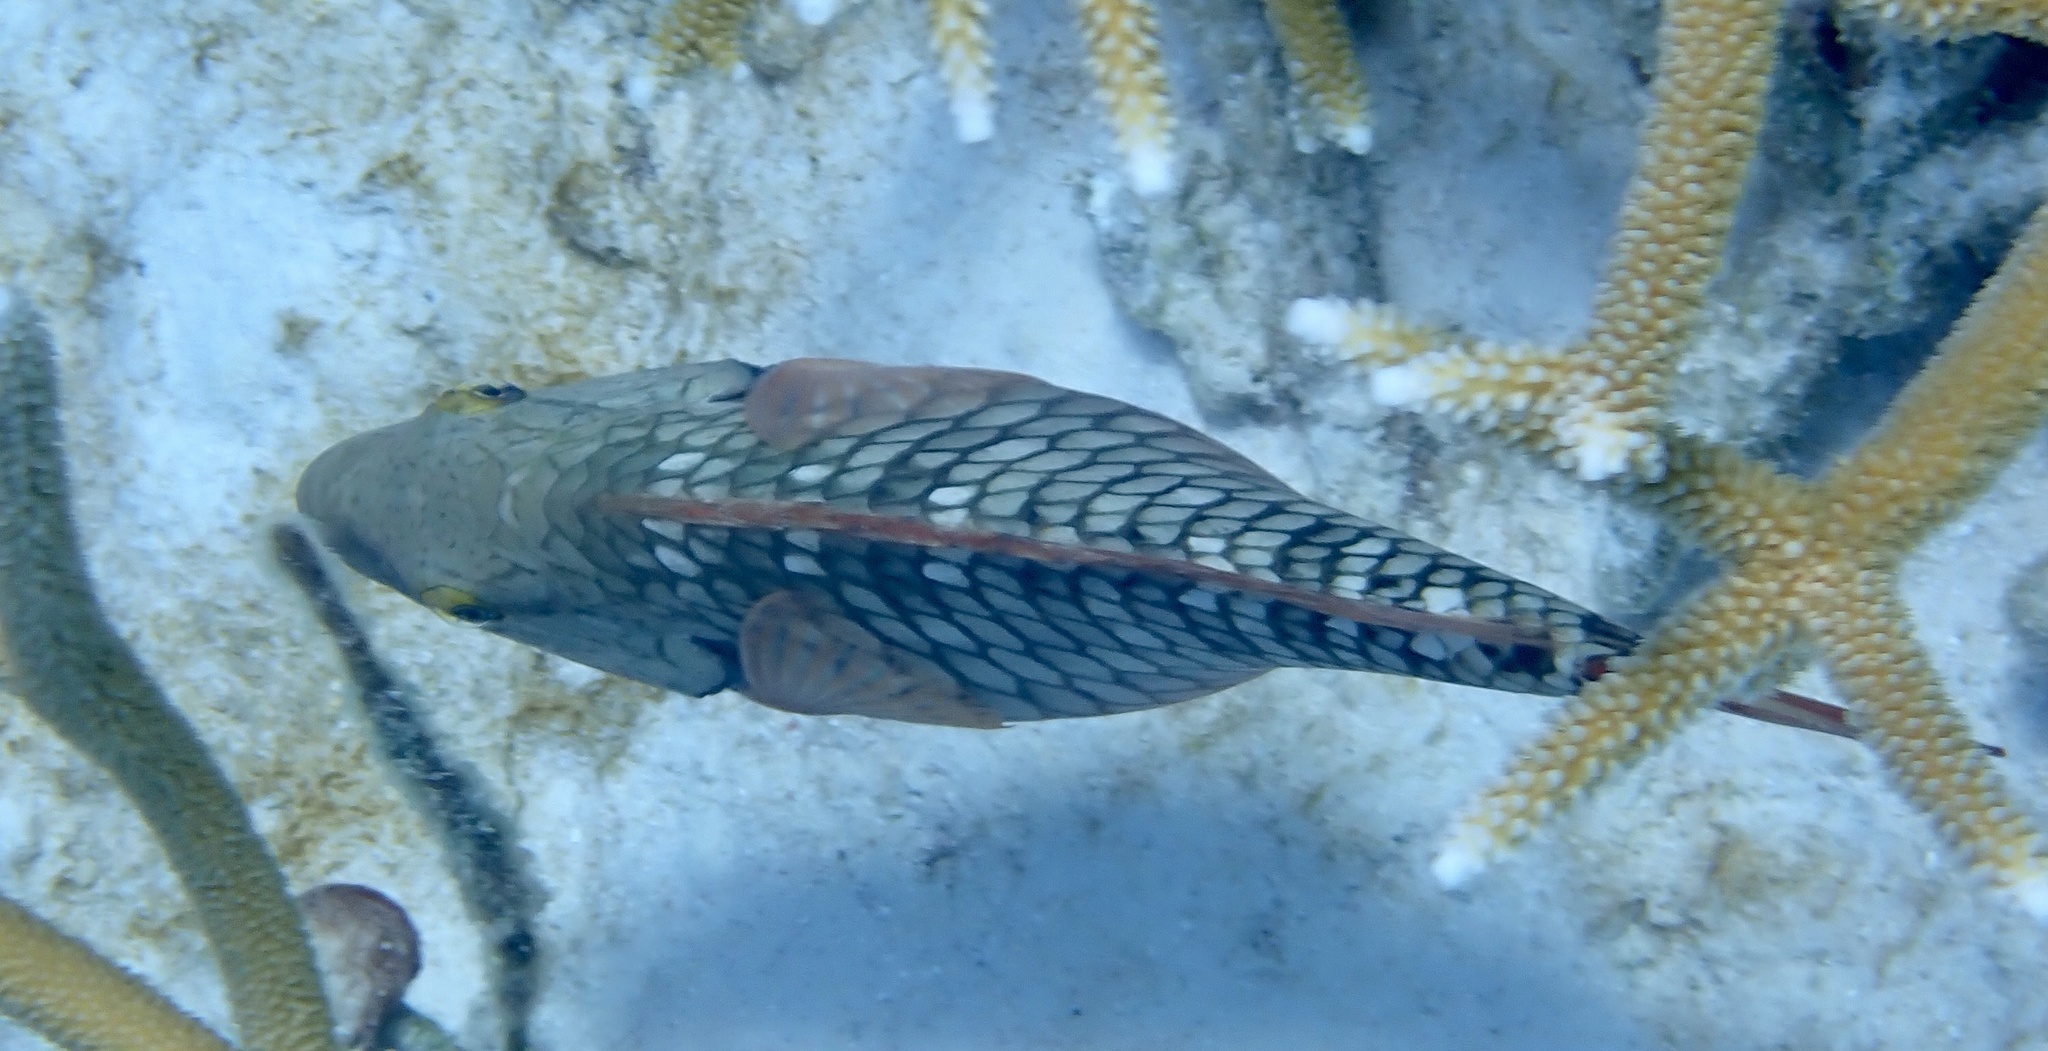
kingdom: Animalia
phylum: Chordata
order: Perciformes
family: Scaridae
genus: Sparisoma
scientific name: Sparisoma viride
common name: Stoplight parrotfish
